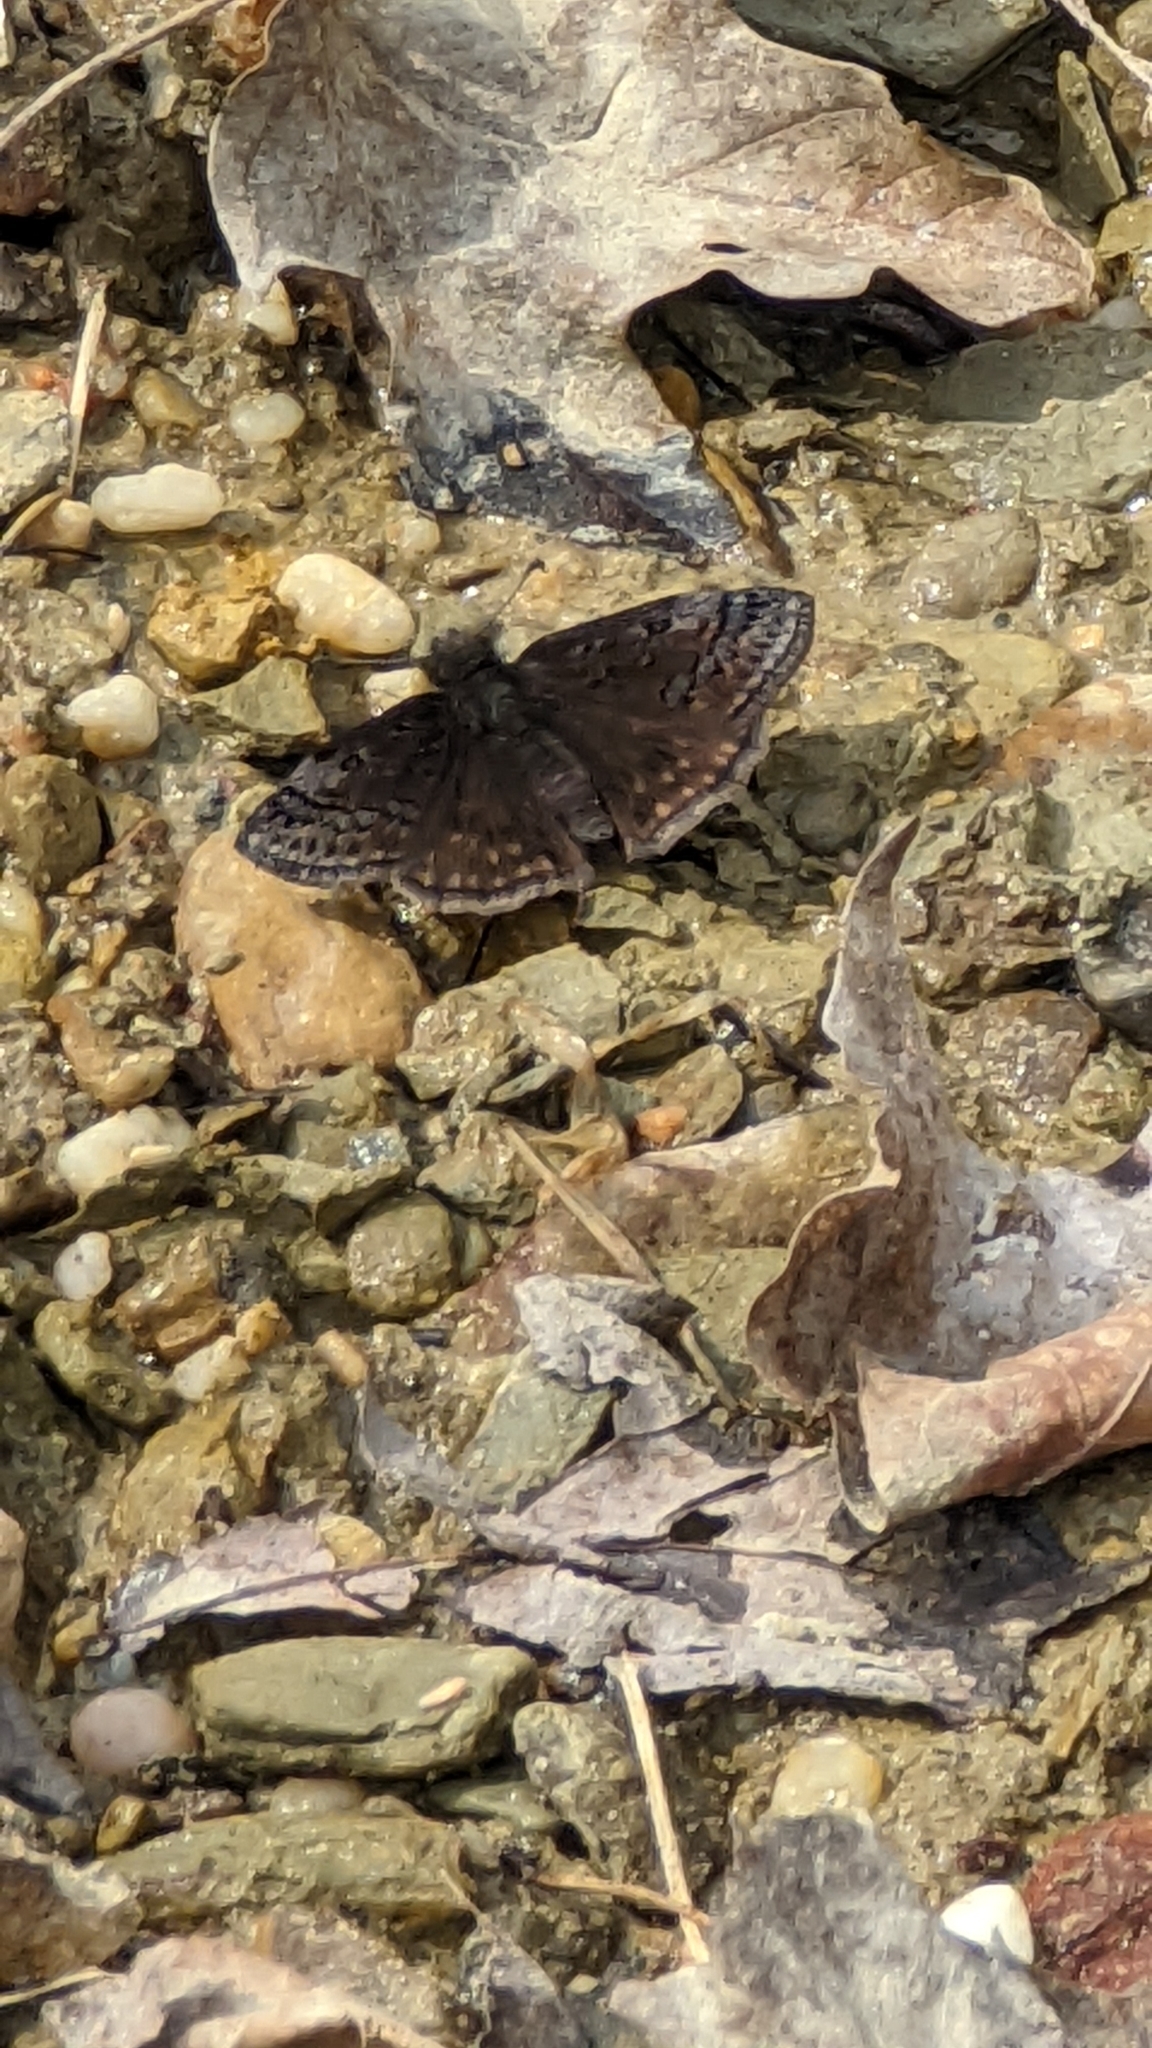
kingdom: Animalia
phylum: Arthropoda
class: Insecta
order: Lepidoptera
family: Hesperiidae
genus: Erynnis
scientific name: Erynnis brizo
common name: Sleepy duskywing
